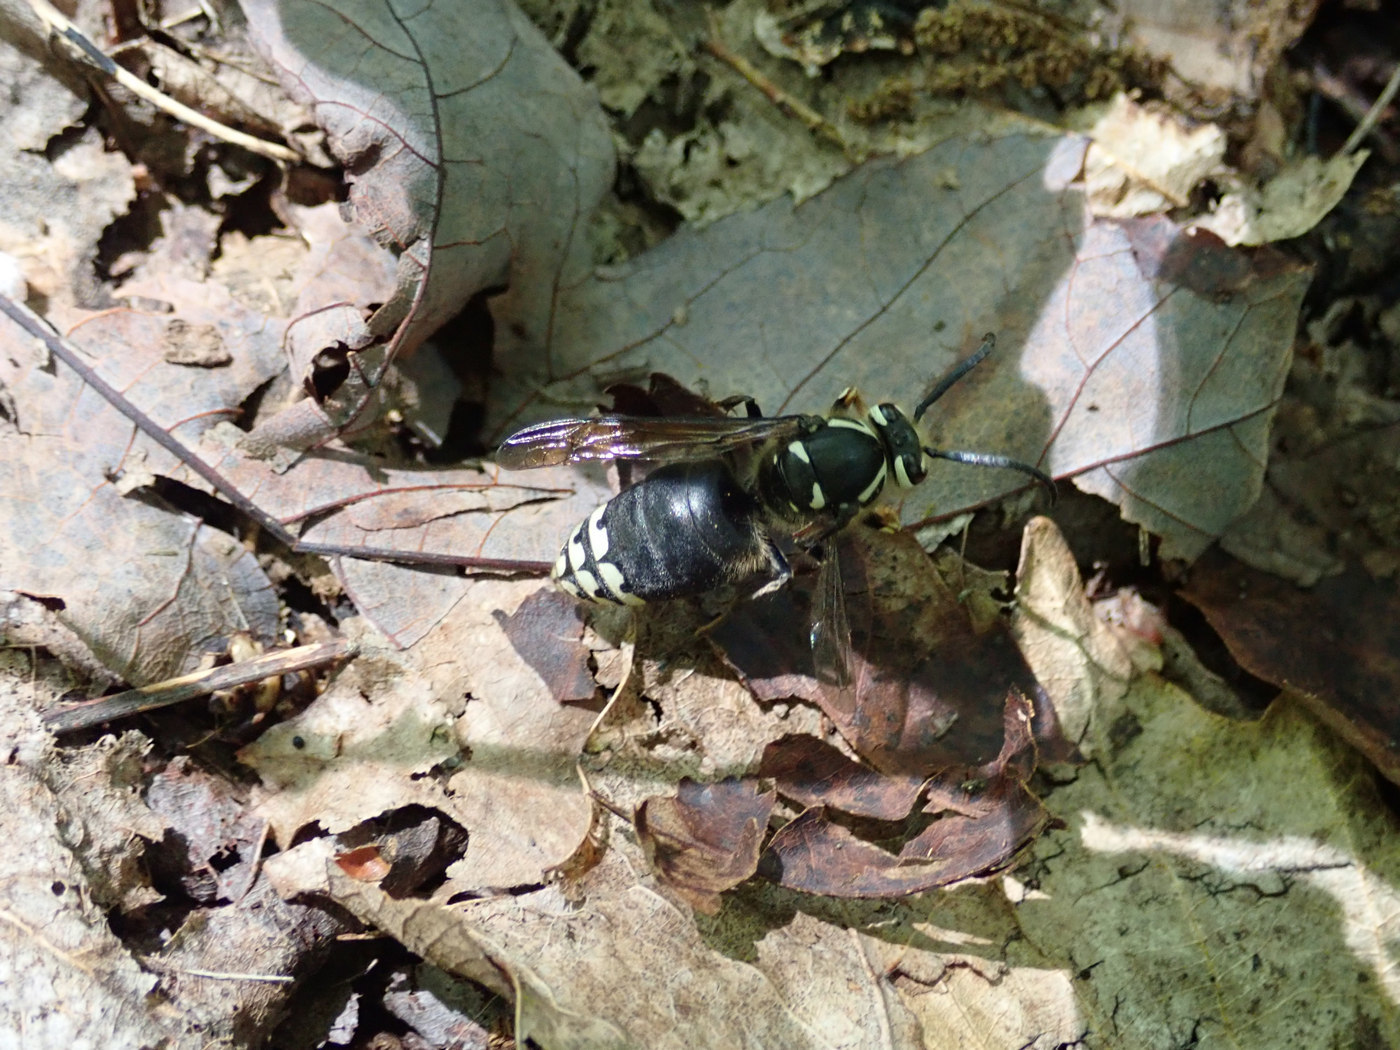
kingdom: Animalia
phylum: Arthropoda
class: Insecta
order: Hymenoptera
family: Vespidae
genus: Dolichovespula
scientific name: Dolichovespula maculata
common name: Bald-faced hornet
